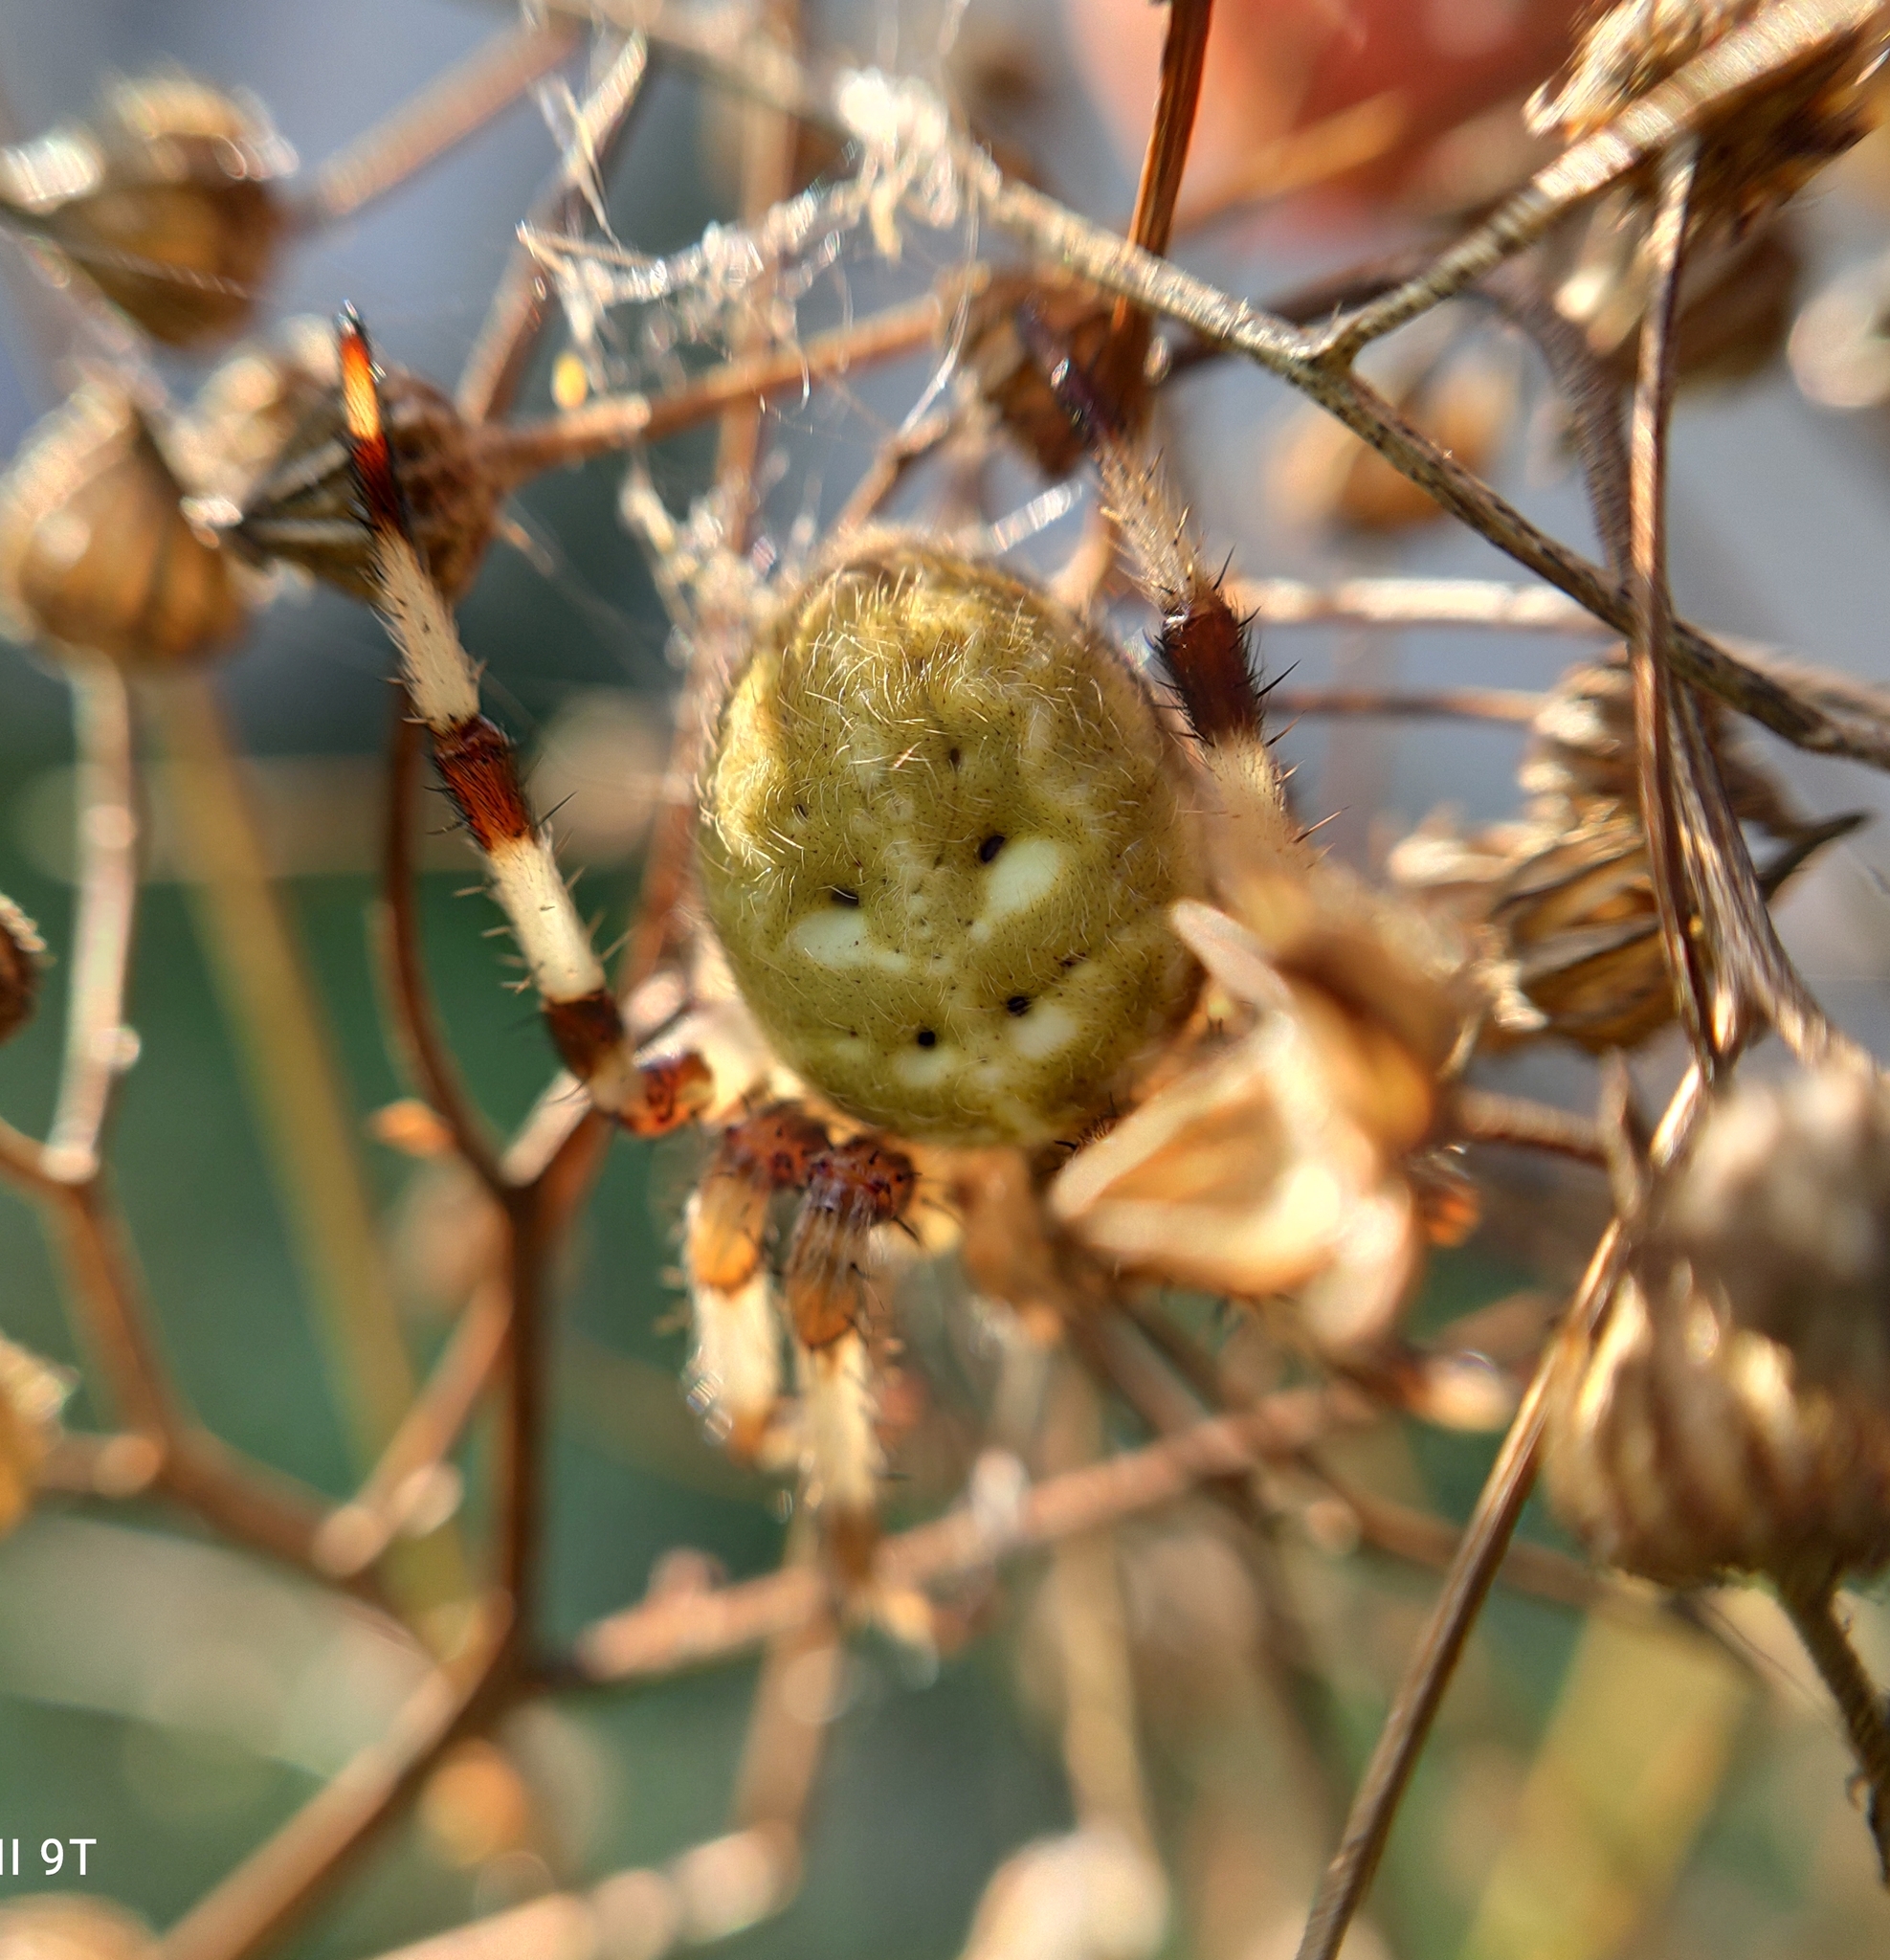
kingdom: Animalia
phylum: Arthropoda
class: Arachnida
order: Araneae
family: Araneidae
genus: Araneus
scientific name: Araneus quadratus
